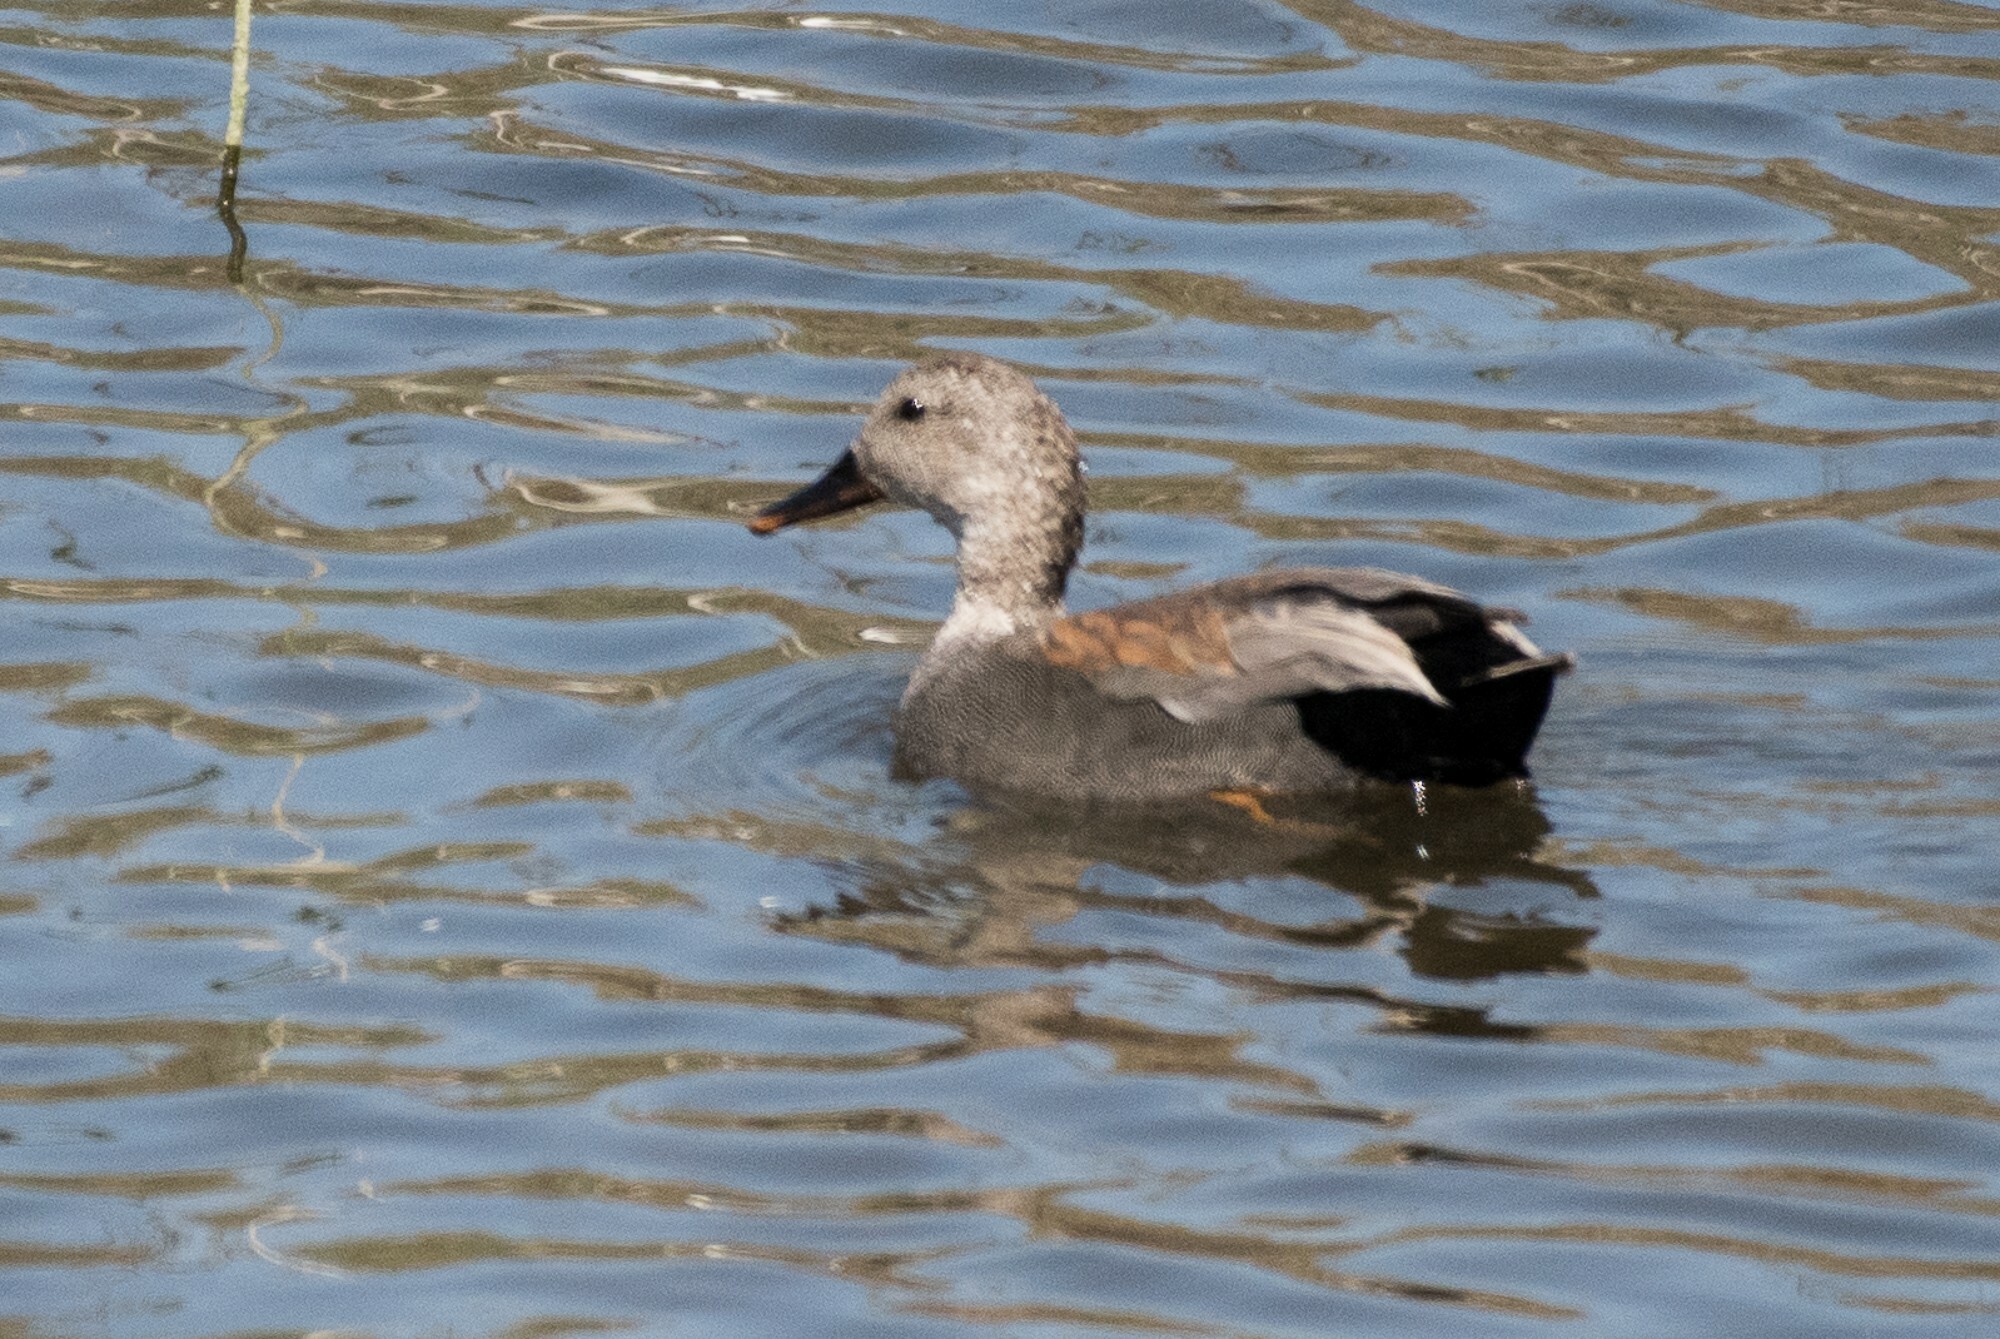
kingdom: Animalia
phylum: Chordata
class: Aves
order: Anseriformes
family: Anatidae
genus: Mareca
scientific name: Mareca strepera
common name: Gadwall
